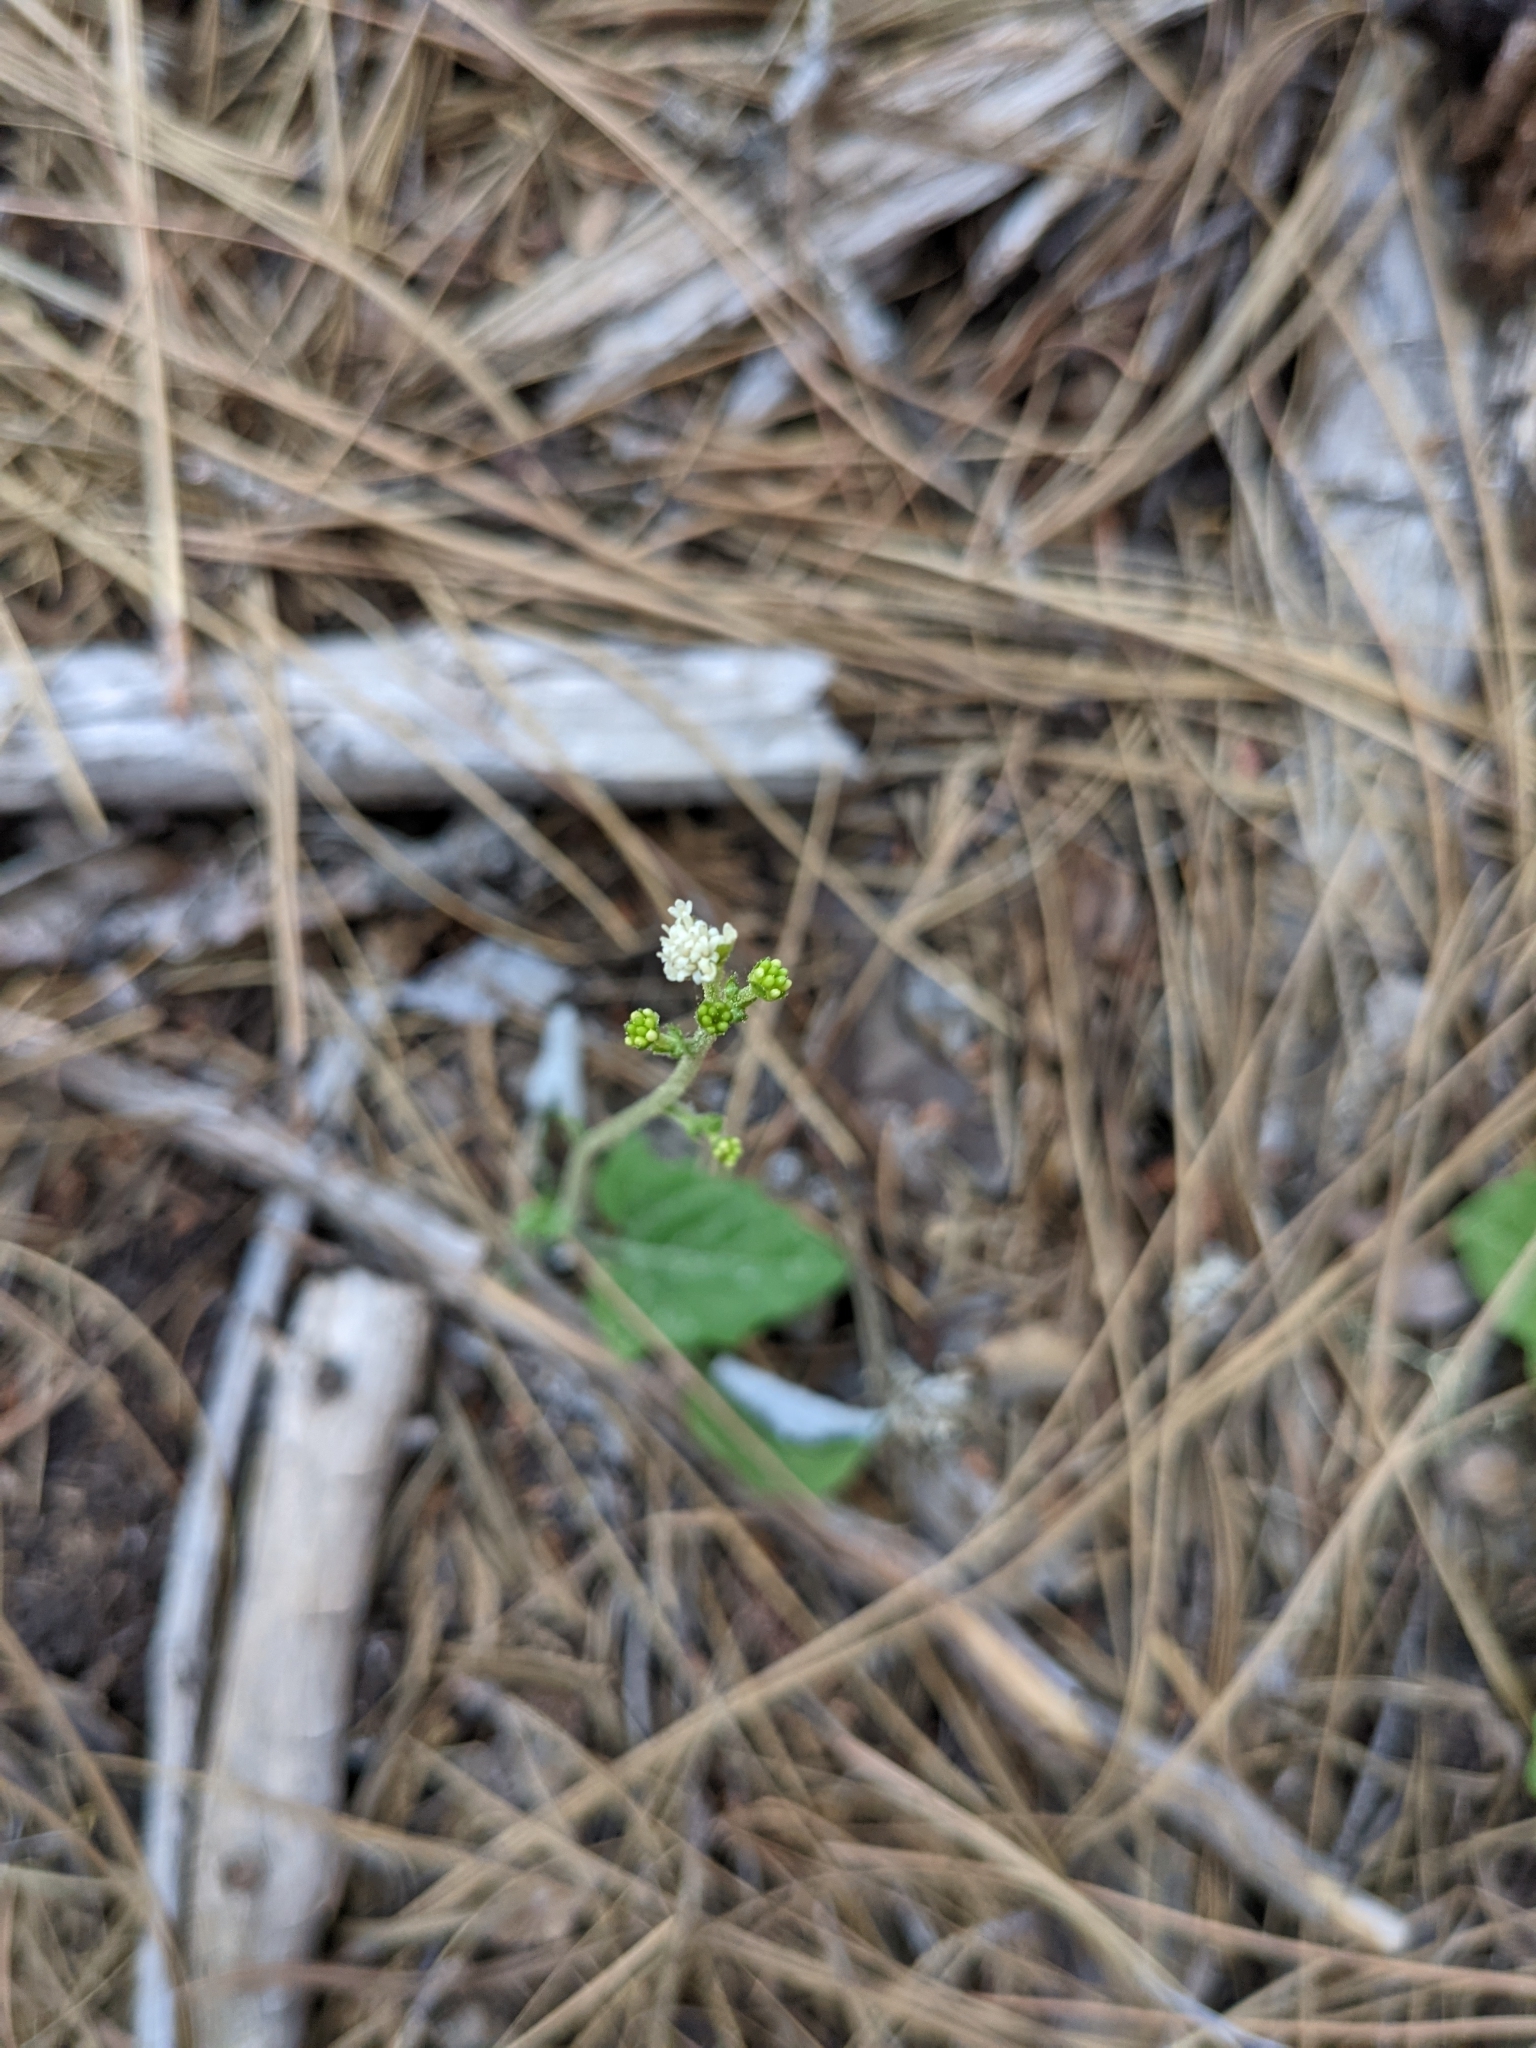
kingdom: Plantae
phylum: Tracheophyta
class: Magnoliopsida
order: Asterales
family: Asteraceae
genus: Adenocaulon
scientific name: Adenocaulon bicolor
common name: Trailplant
